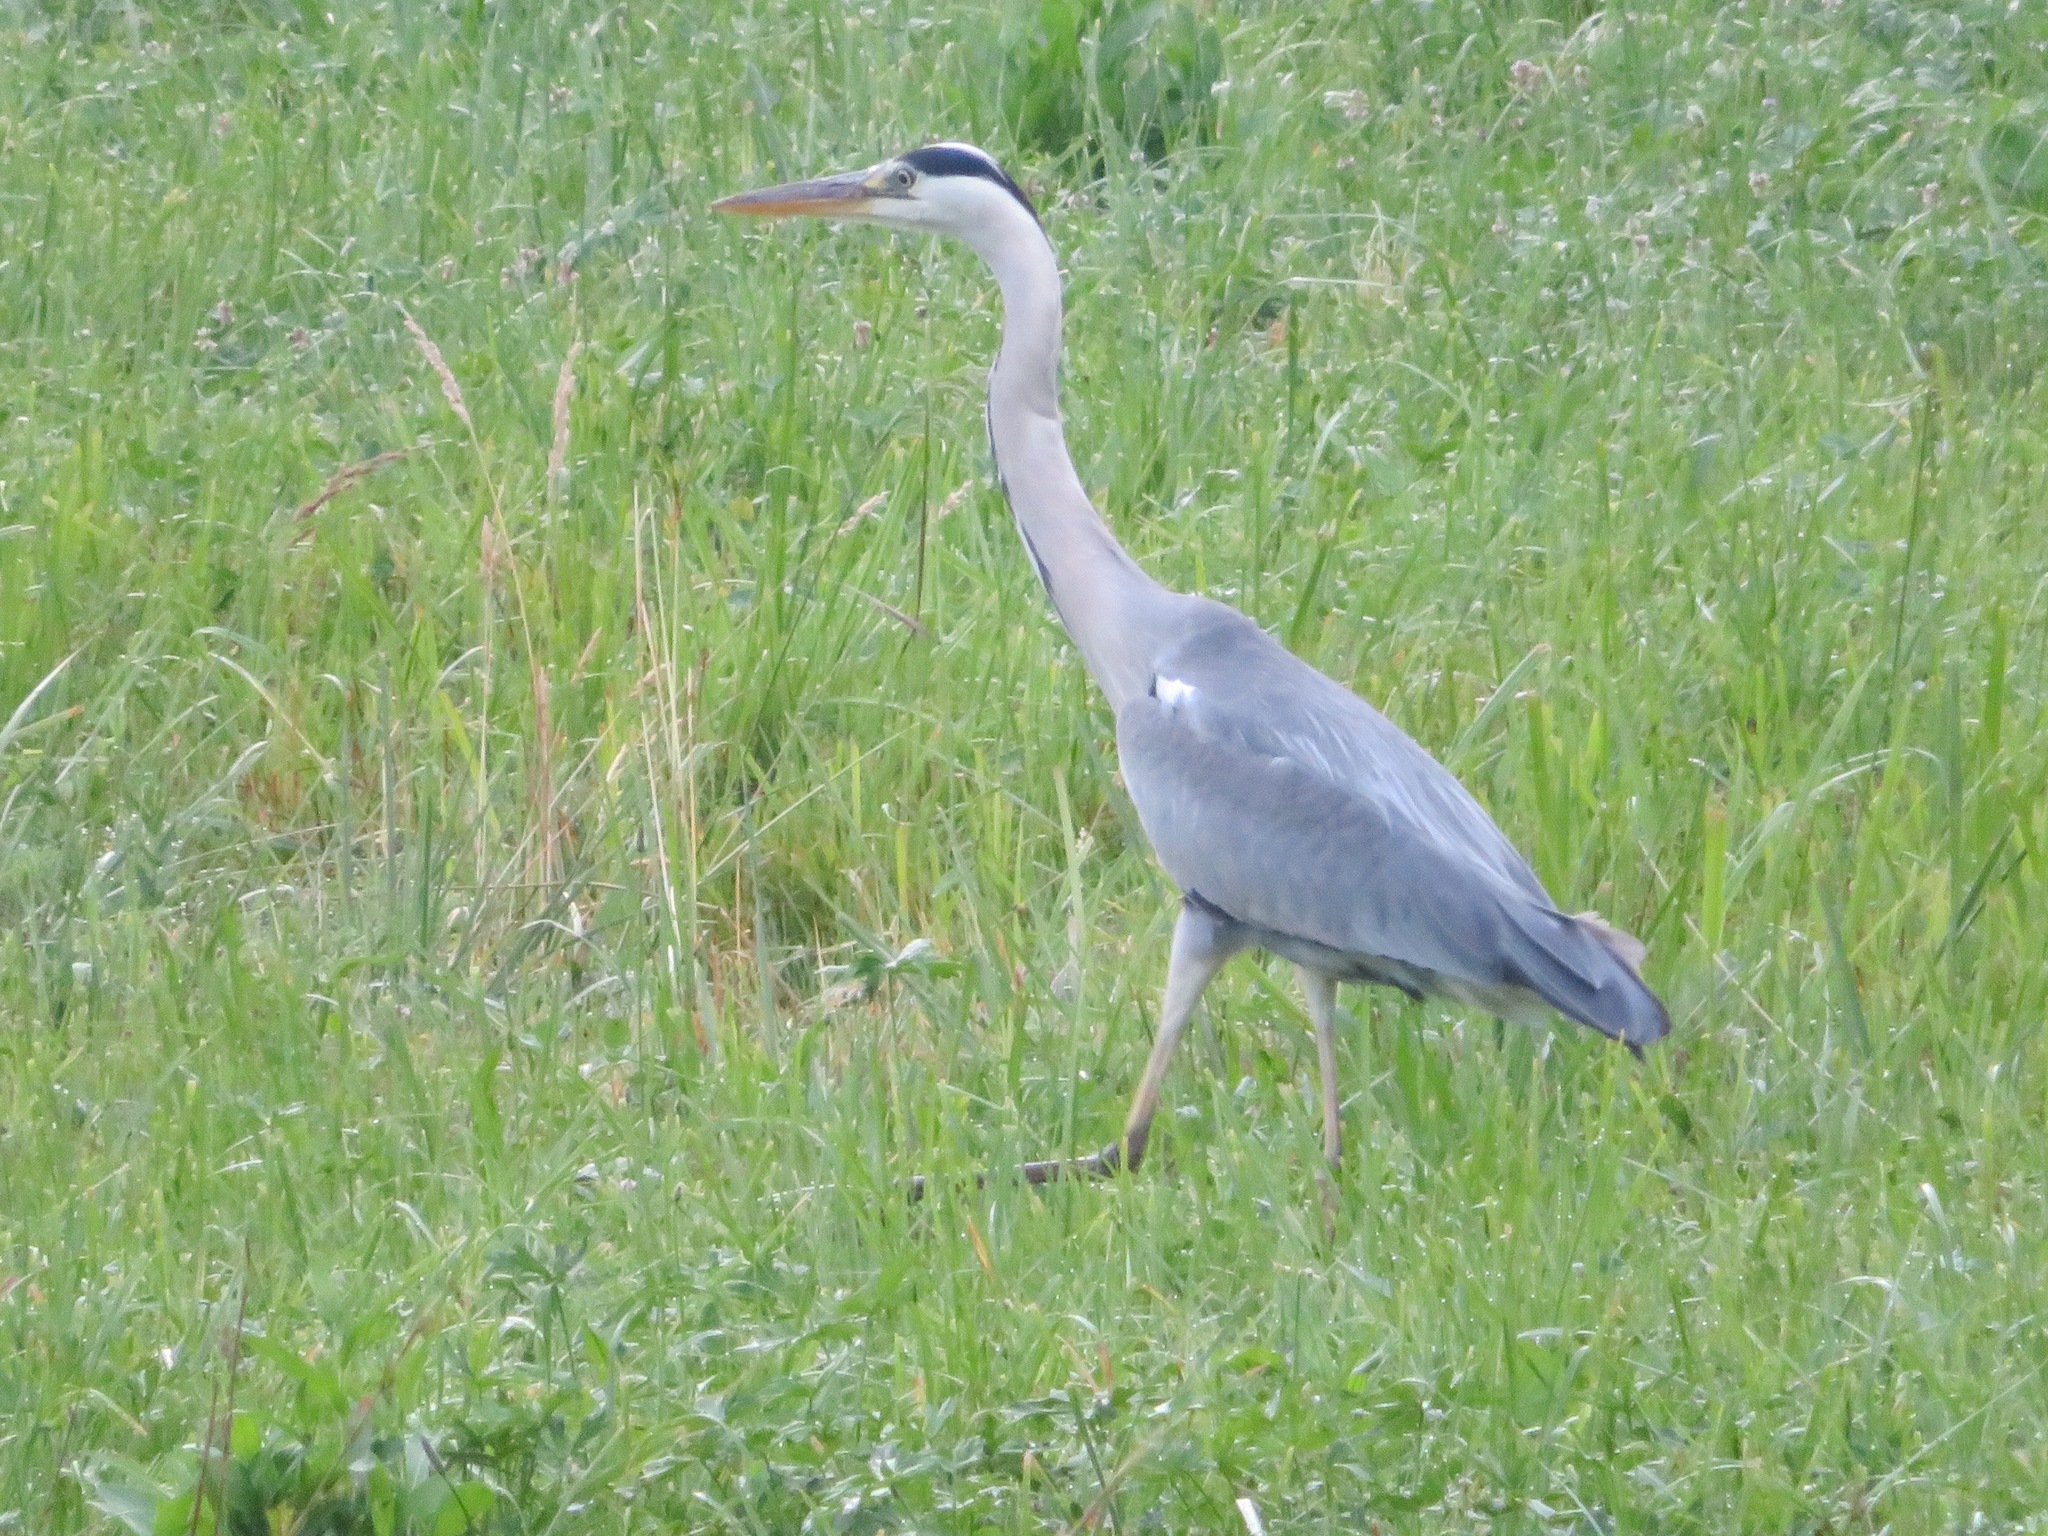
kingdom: Animalia
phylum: Chordata
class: Aves
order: Pelecaniformes
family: Ardeidae
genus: Ardea
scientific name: Ardea cinerea
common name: Grey heron
